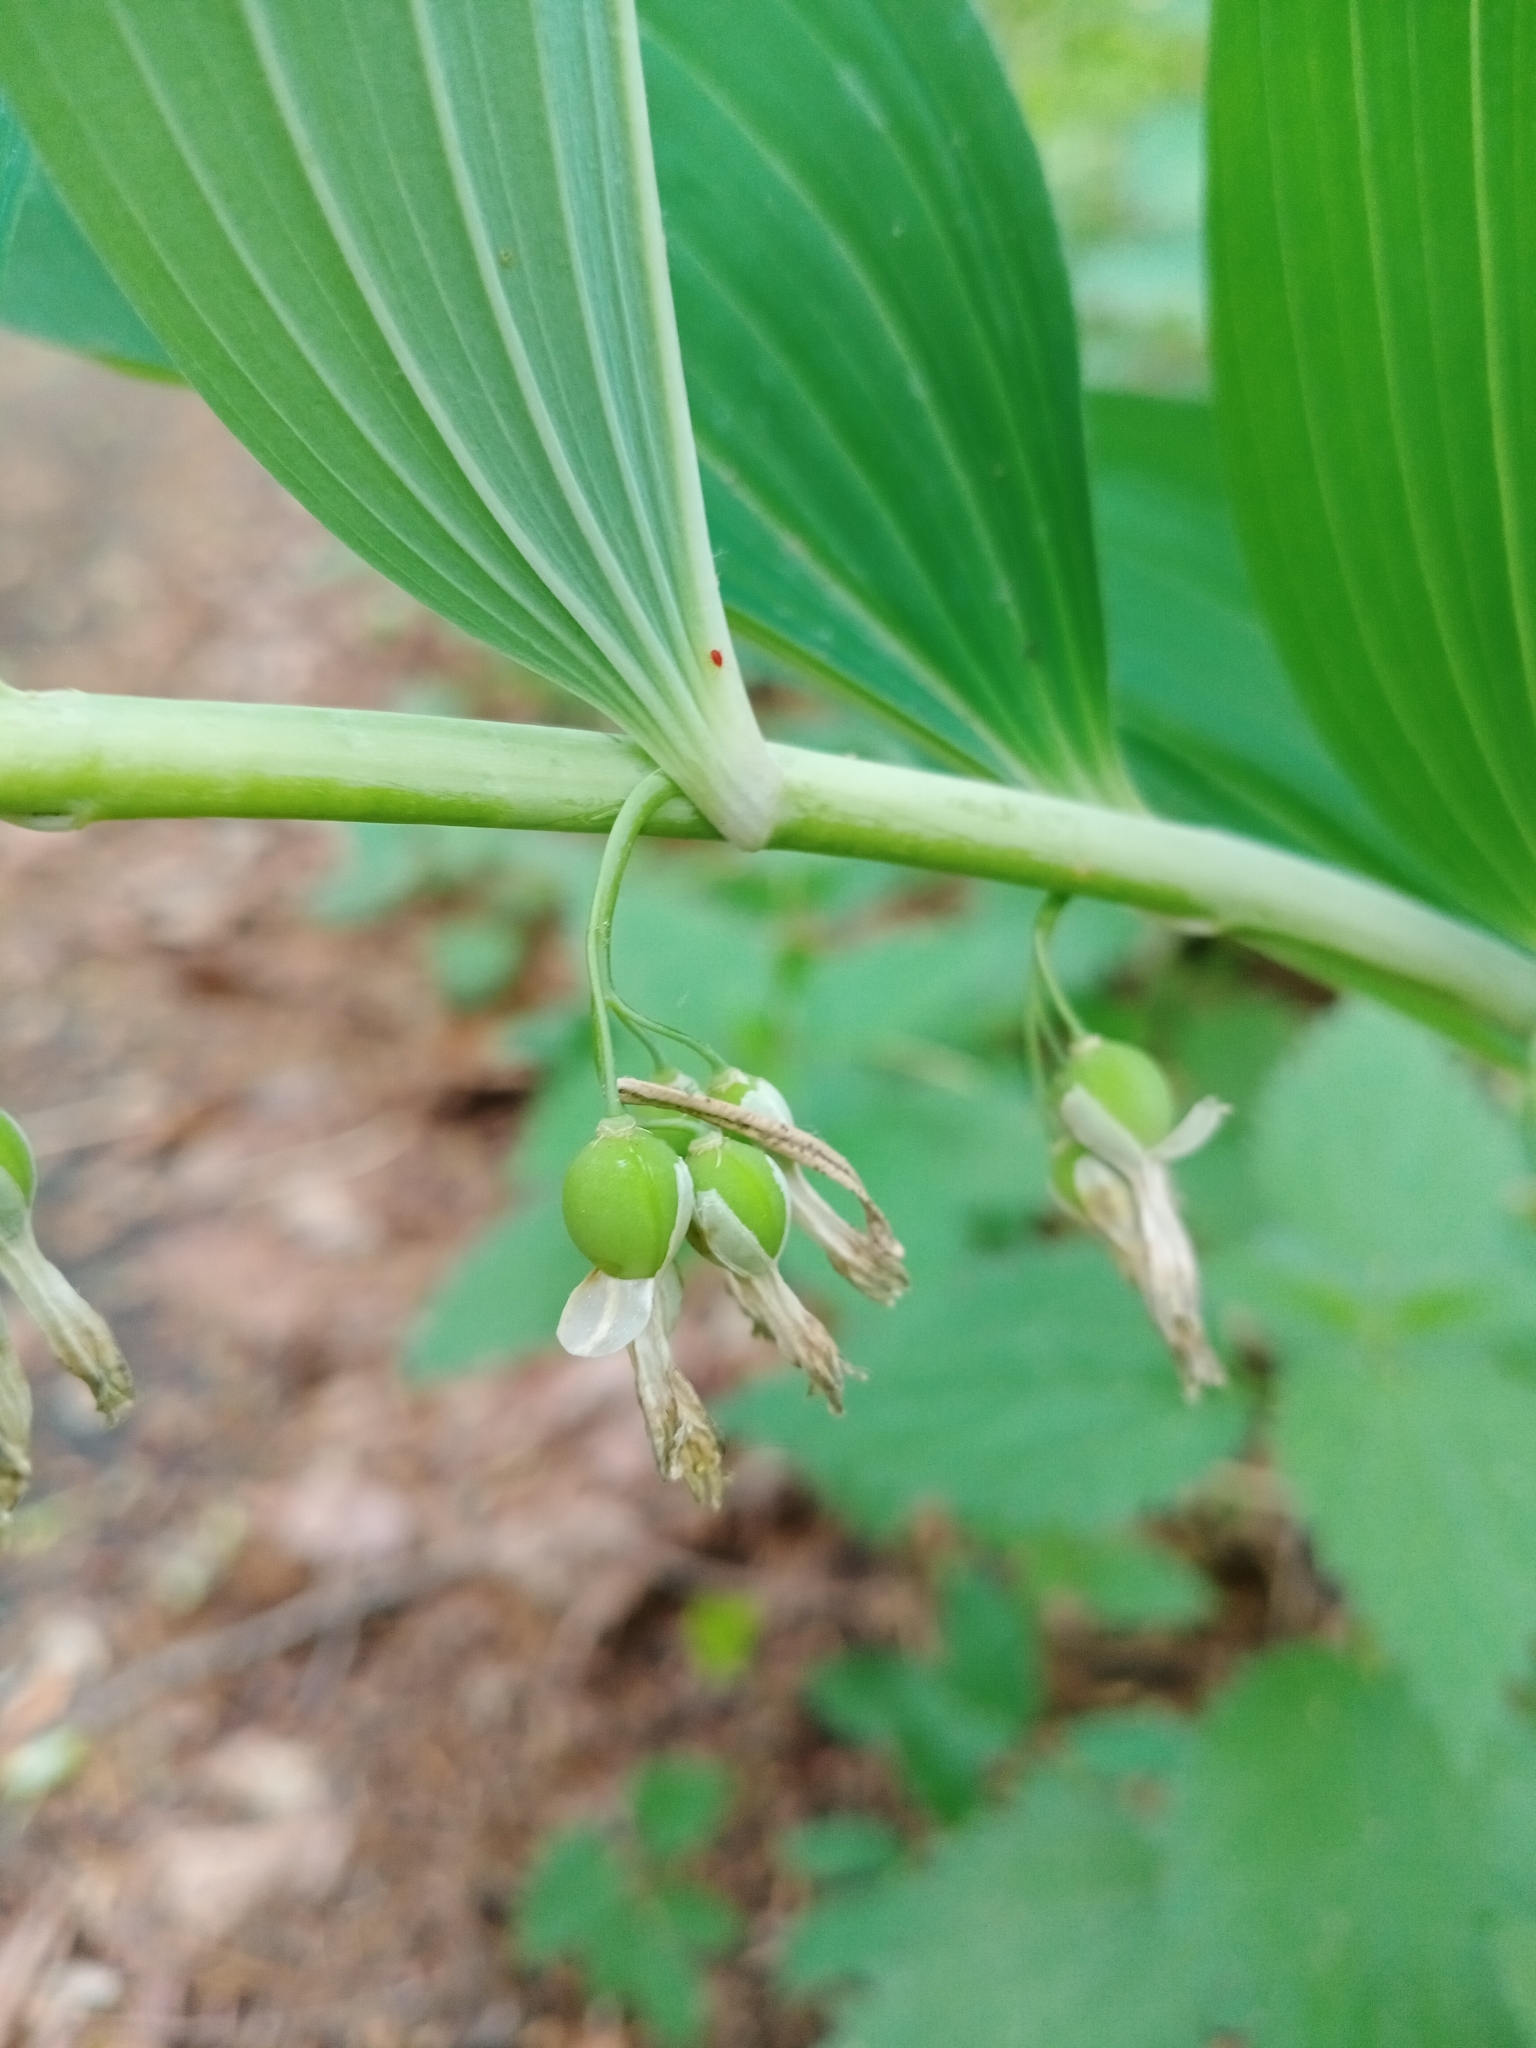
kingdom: Plantae
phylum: Tracheophyta
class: Liliopsida
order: Asparagales
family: Asparagaceae
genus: Polygonatum
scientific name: Polygonatum multiflorum
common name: Solomon's-seal
